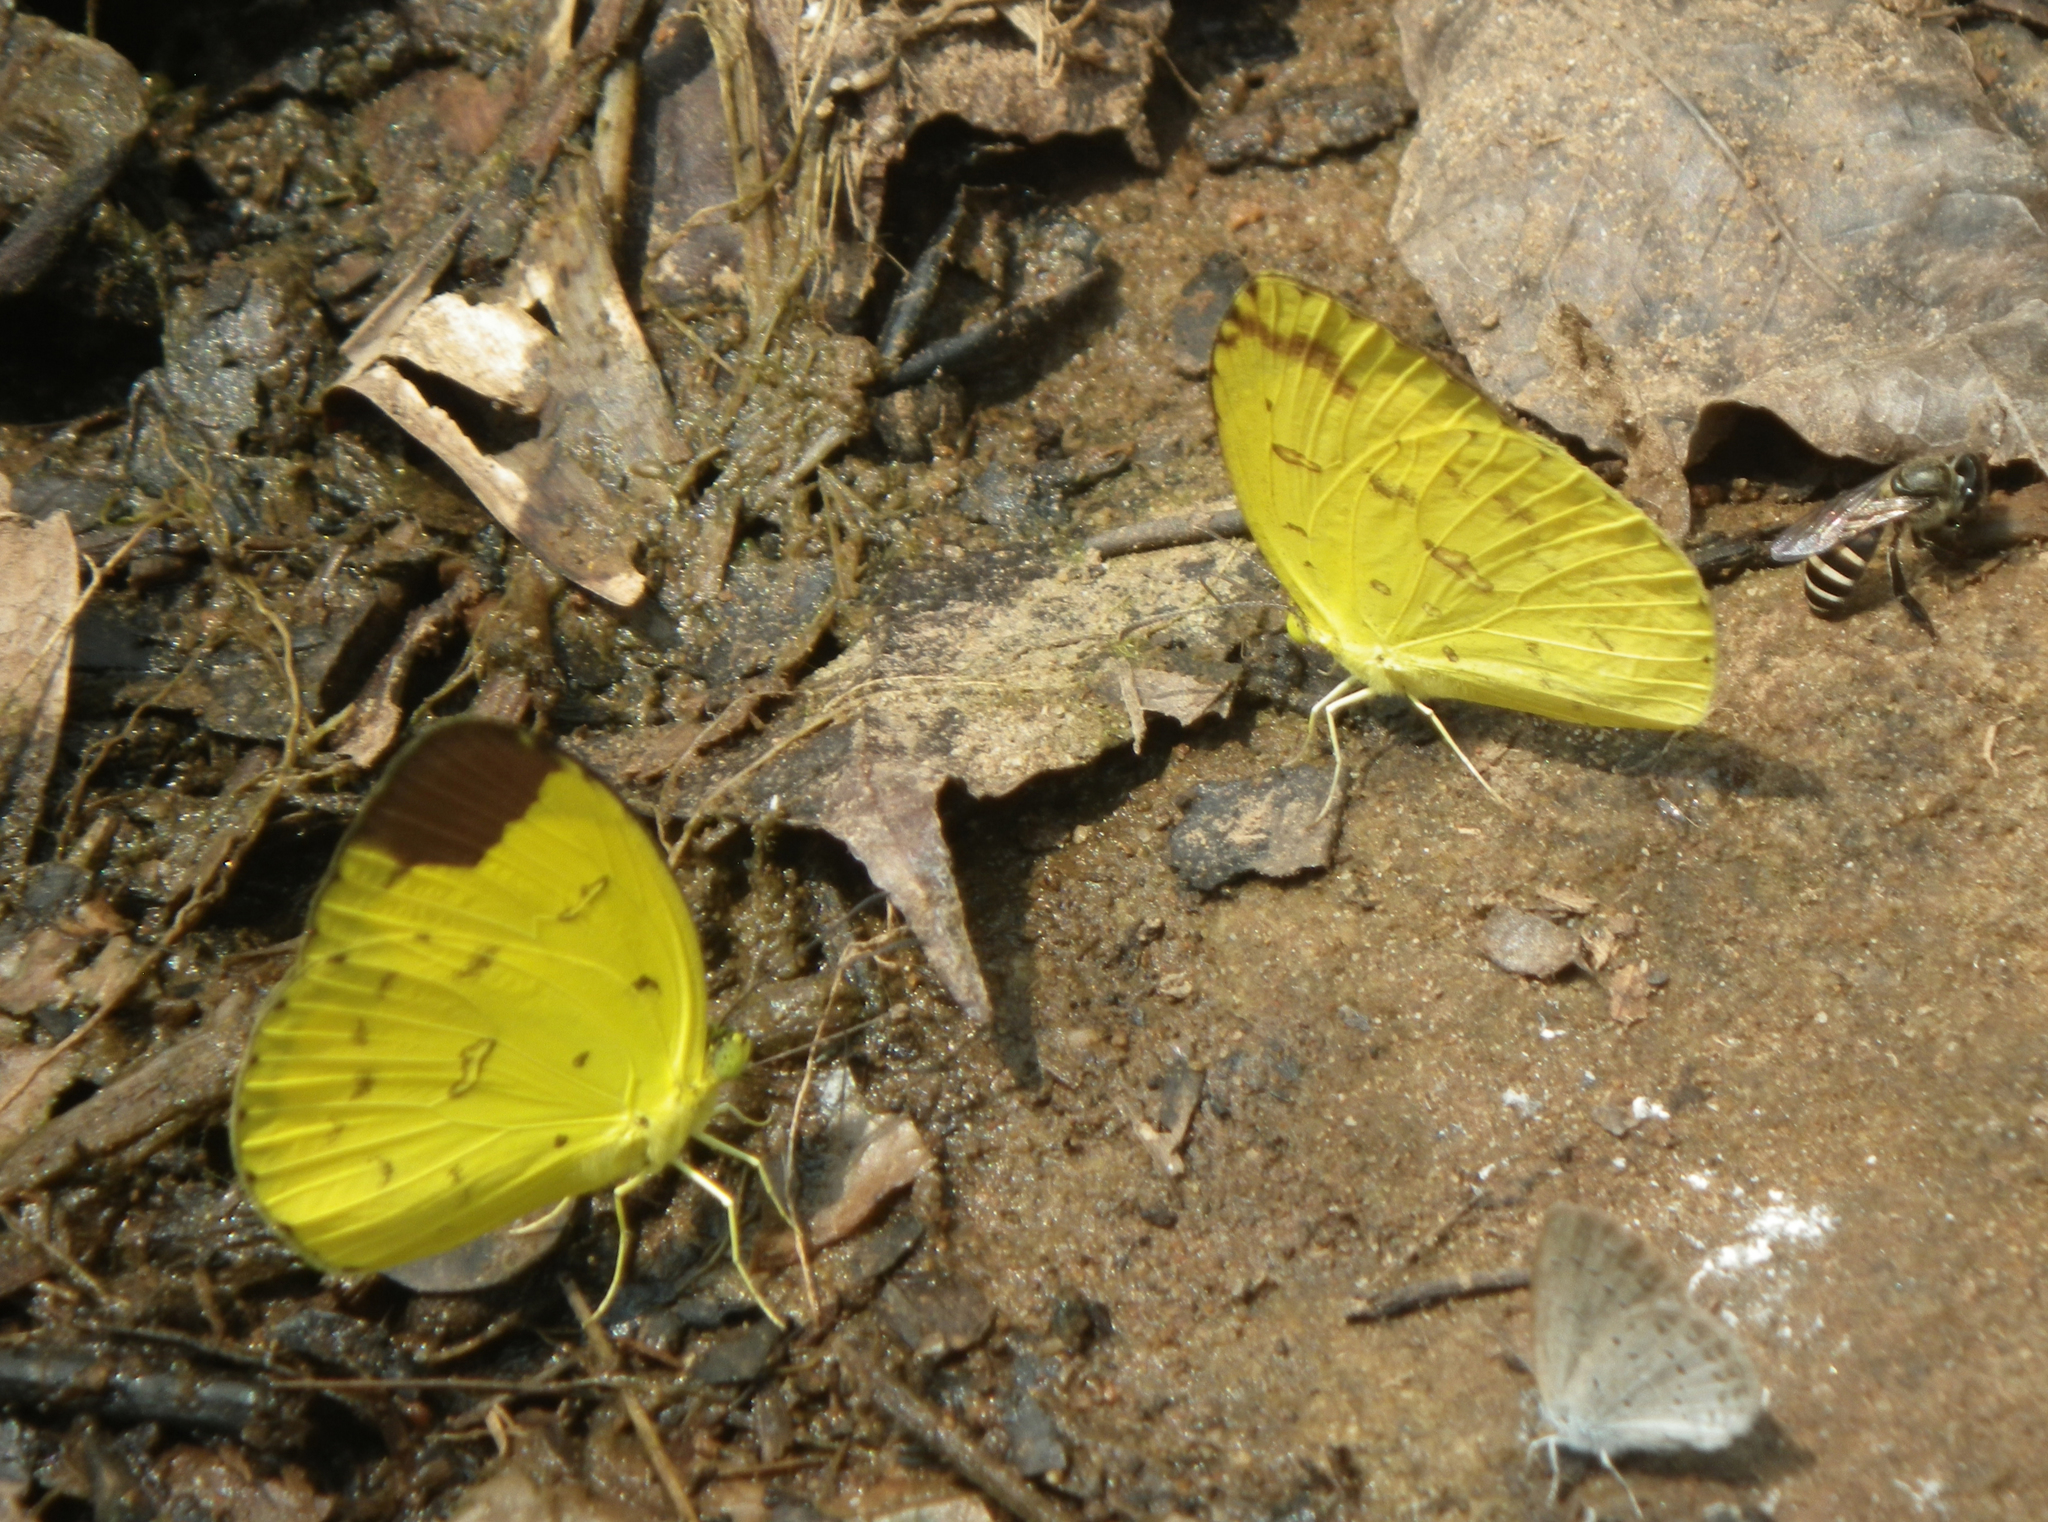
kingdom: Animalia
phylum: Arthropoda
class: Insecta
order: Lepidoptera
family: Pieridae
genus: Eurema
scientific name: Eurema hecabe
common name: Pale grass yellow
